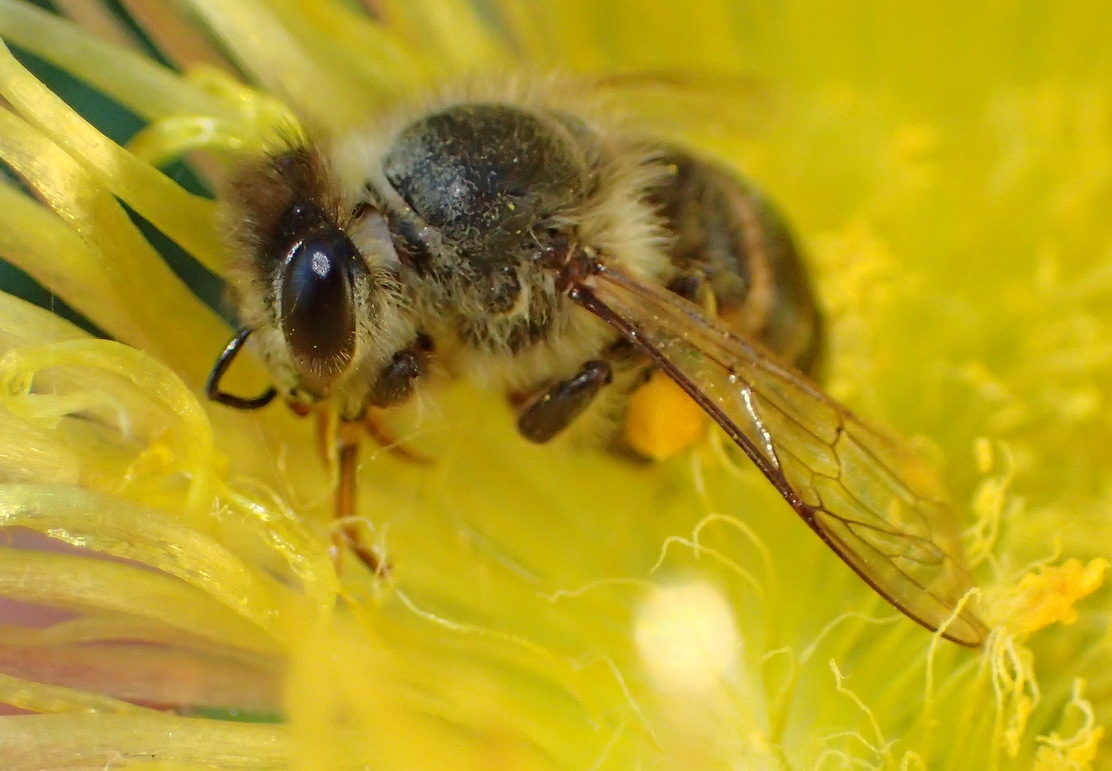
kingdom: Animalia
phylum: Arthropoda
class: Insecta
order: Hymenoptera
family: Apidae
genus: Apis
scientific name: Apis mellifera
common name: Honey bee
